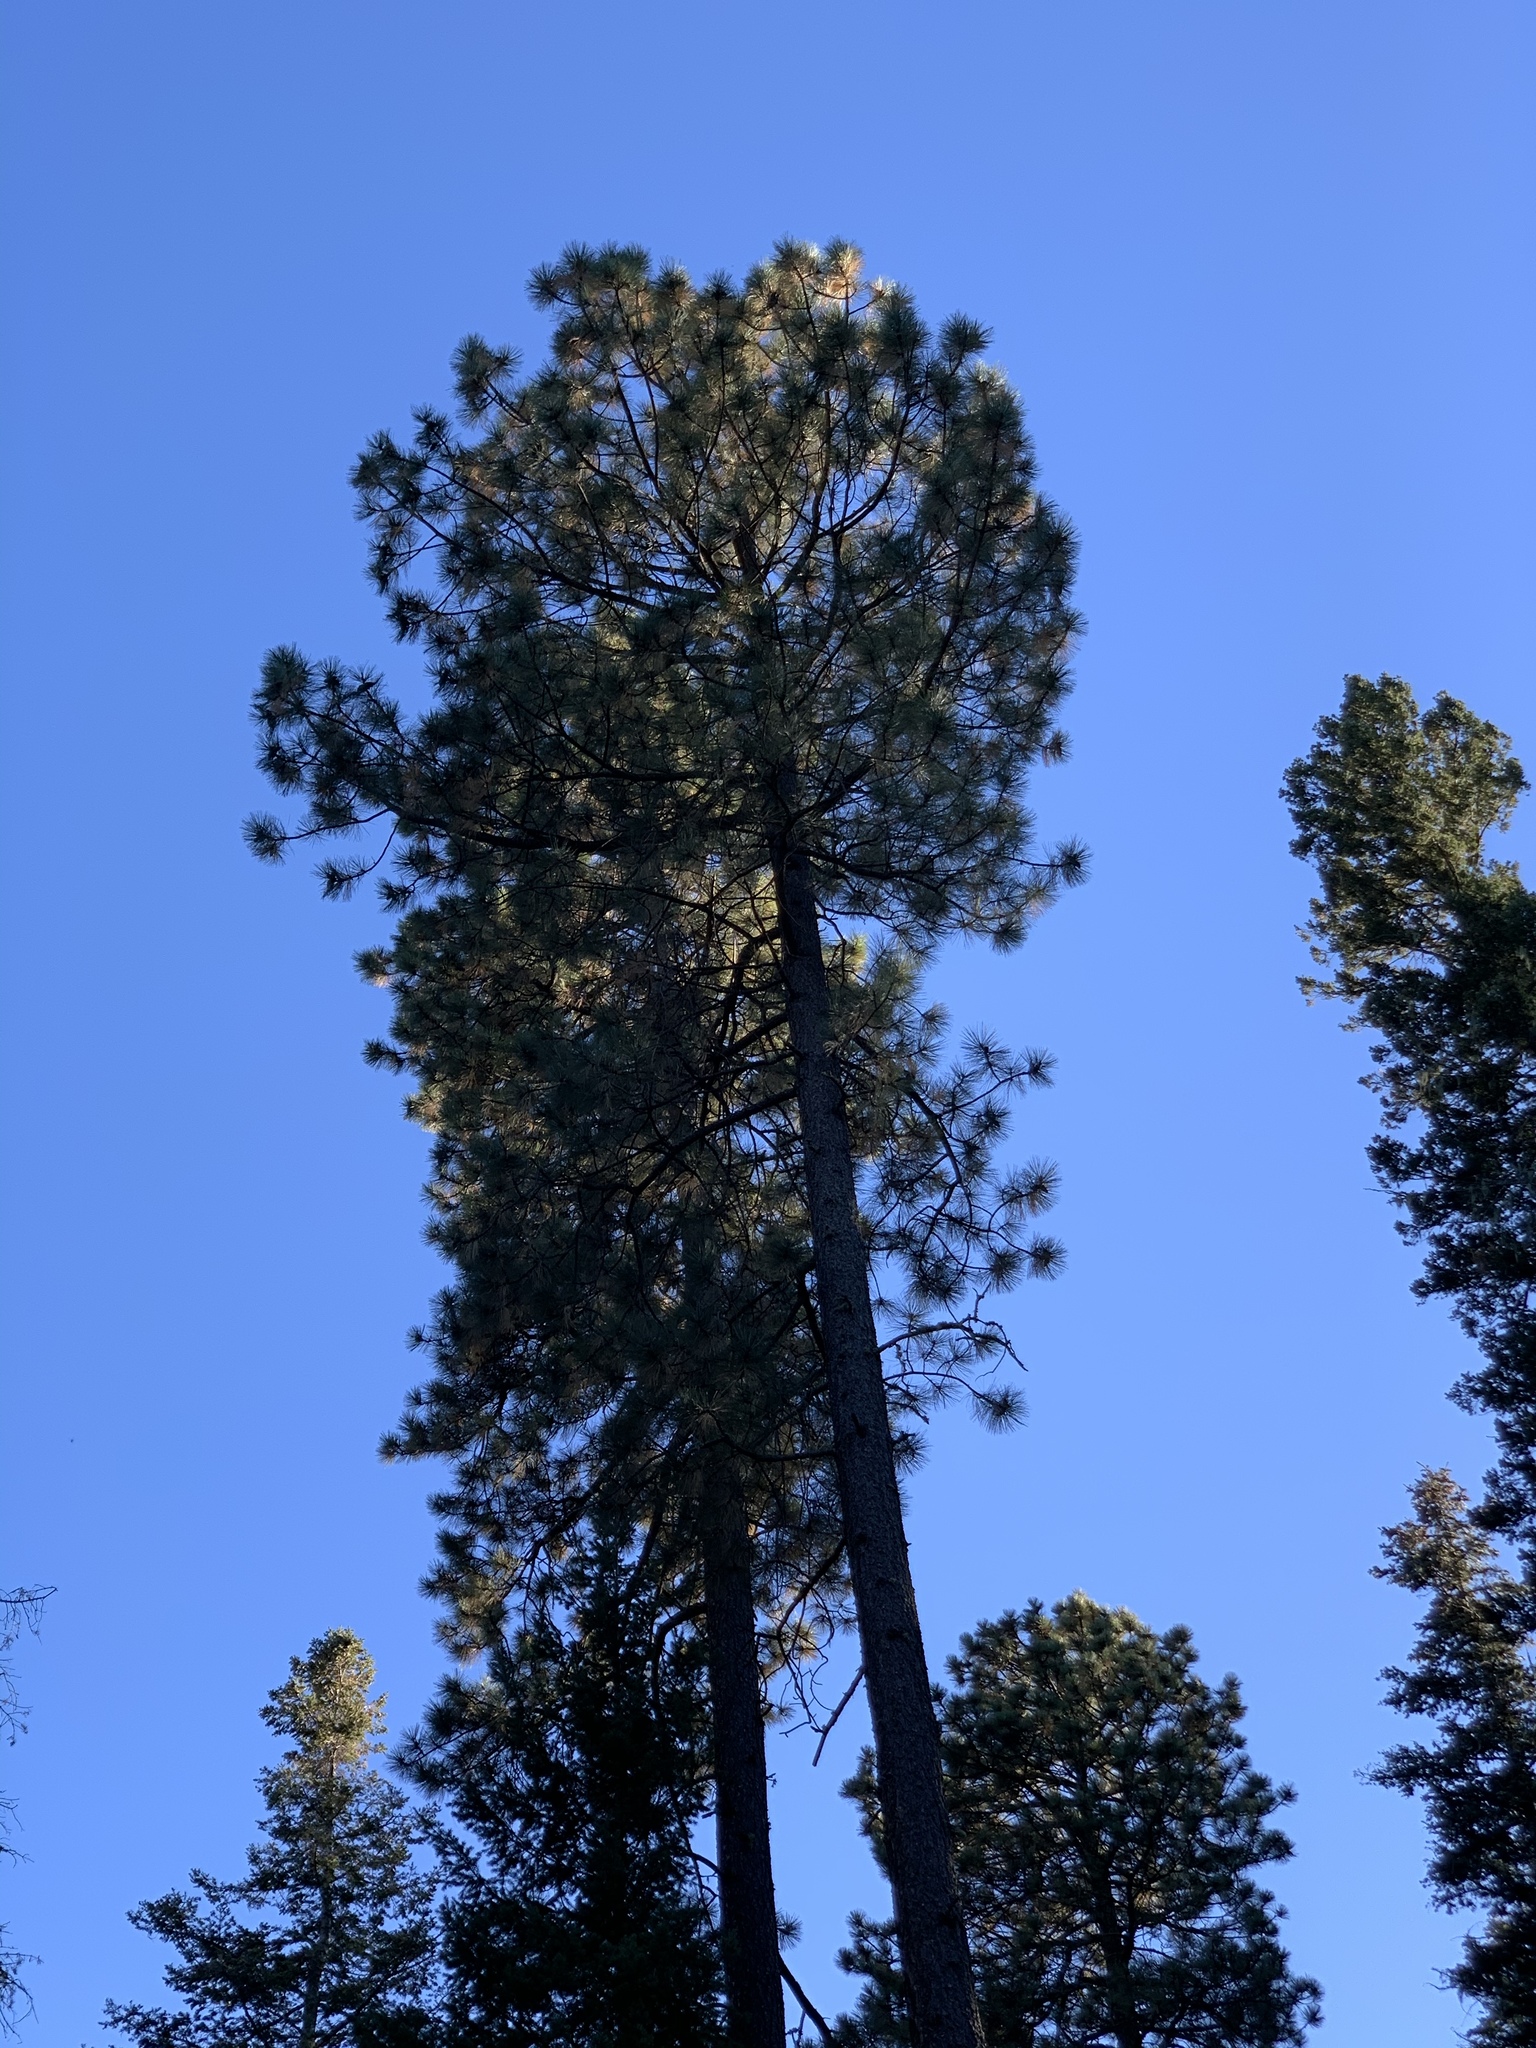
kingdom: Plantae
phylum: Tracheophyta
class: Pinopsida
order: Pinales
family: Pinaceae
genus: Pinus
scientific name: Pinus ponderosa
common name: Western yellow-pine
